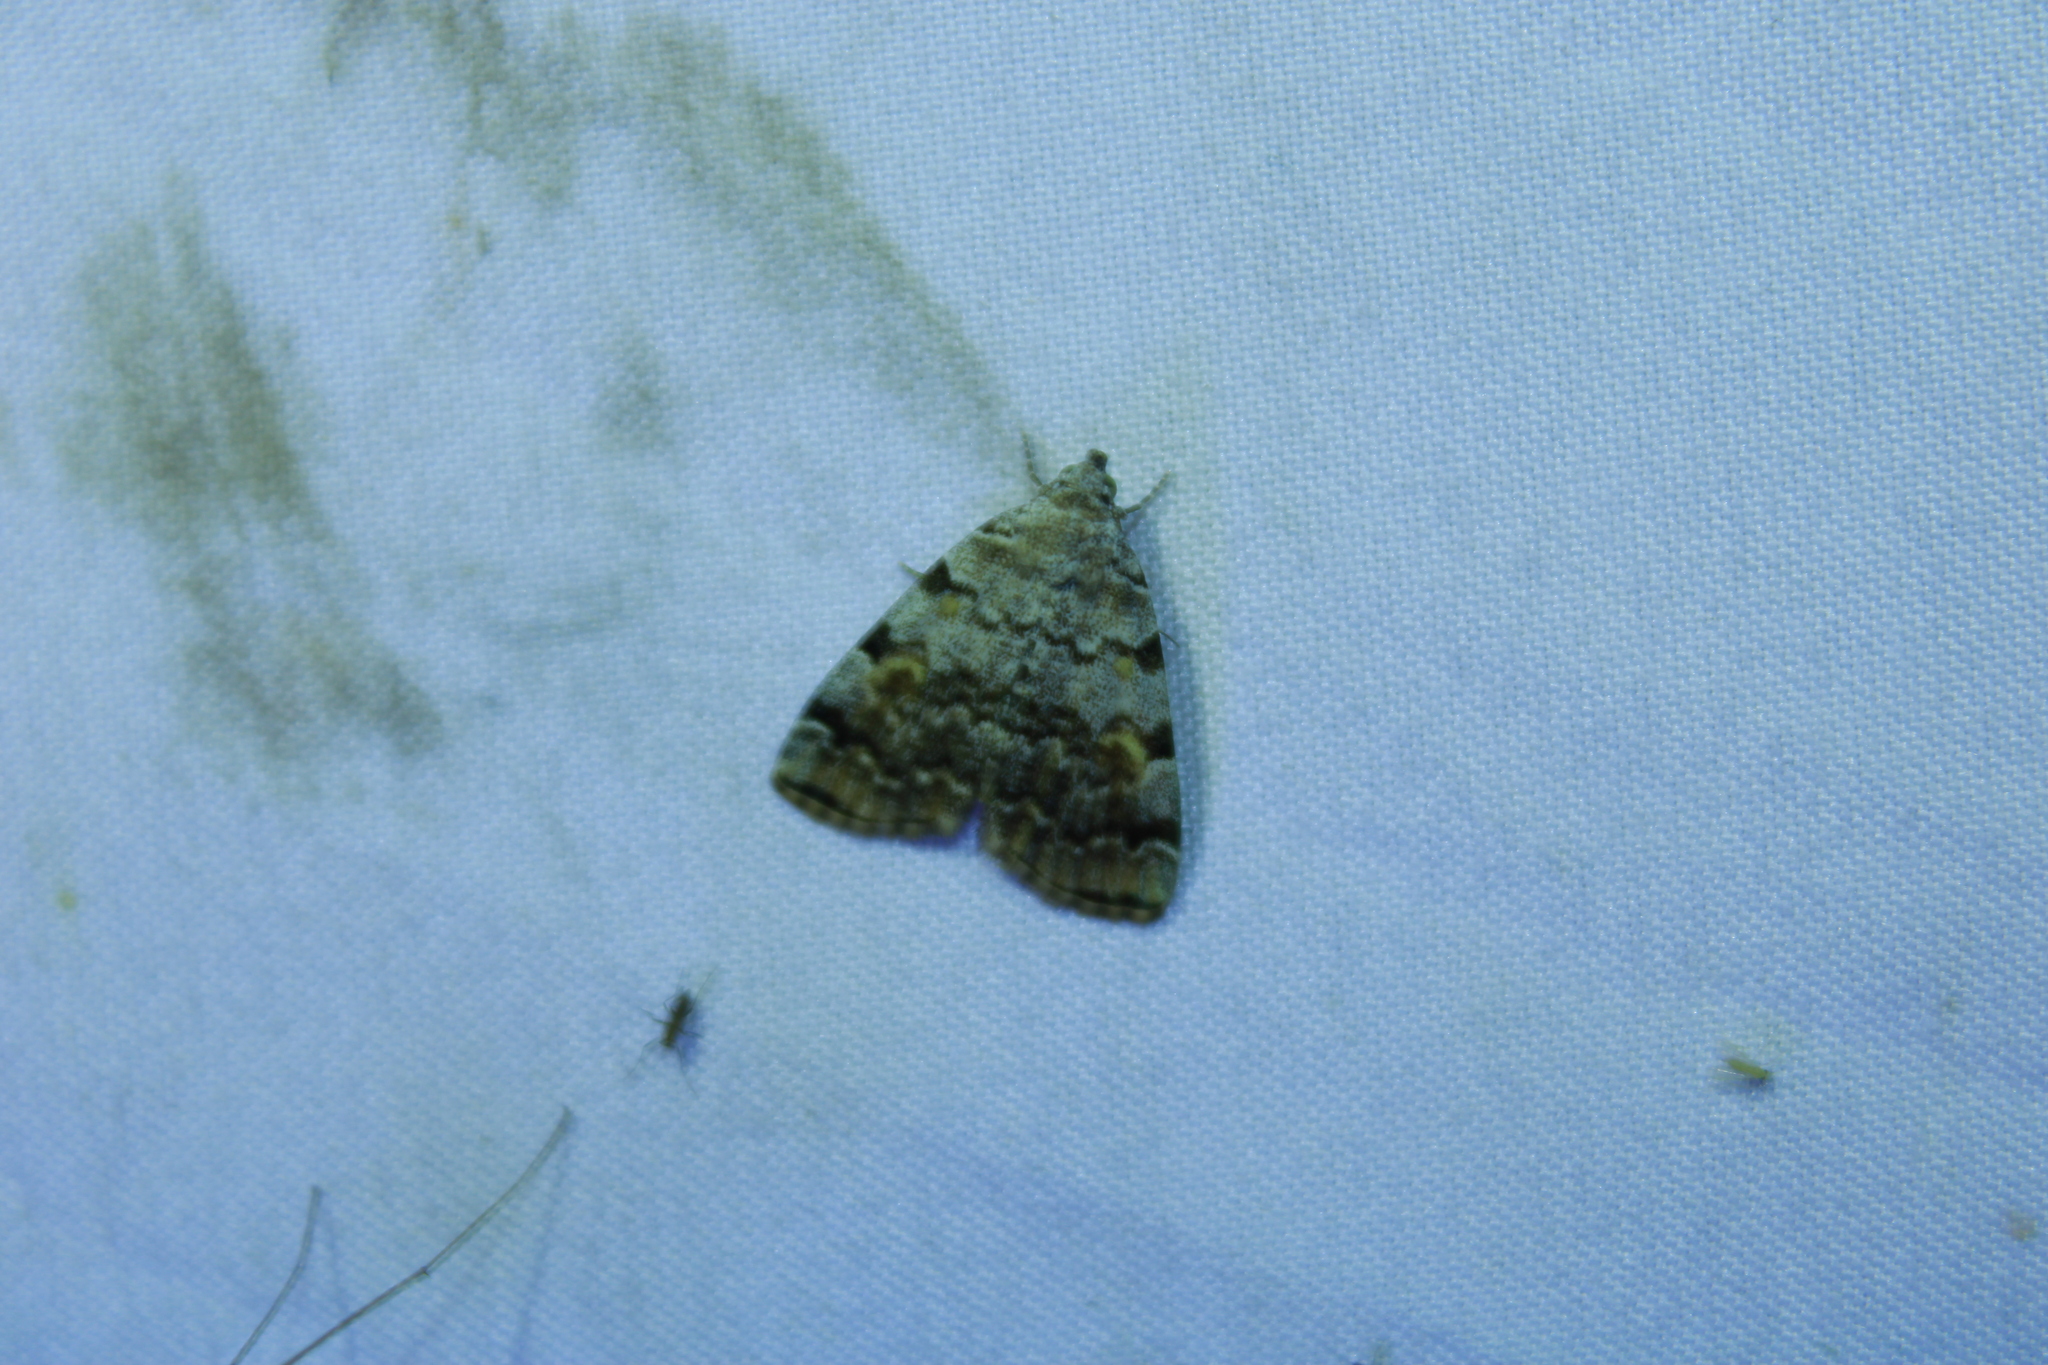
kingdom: Animalia
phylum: Arthropoda
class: Insecta
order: Lepidoptera
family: Erebidae
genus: Idia
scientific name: Idia americalis
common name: American idia moth
